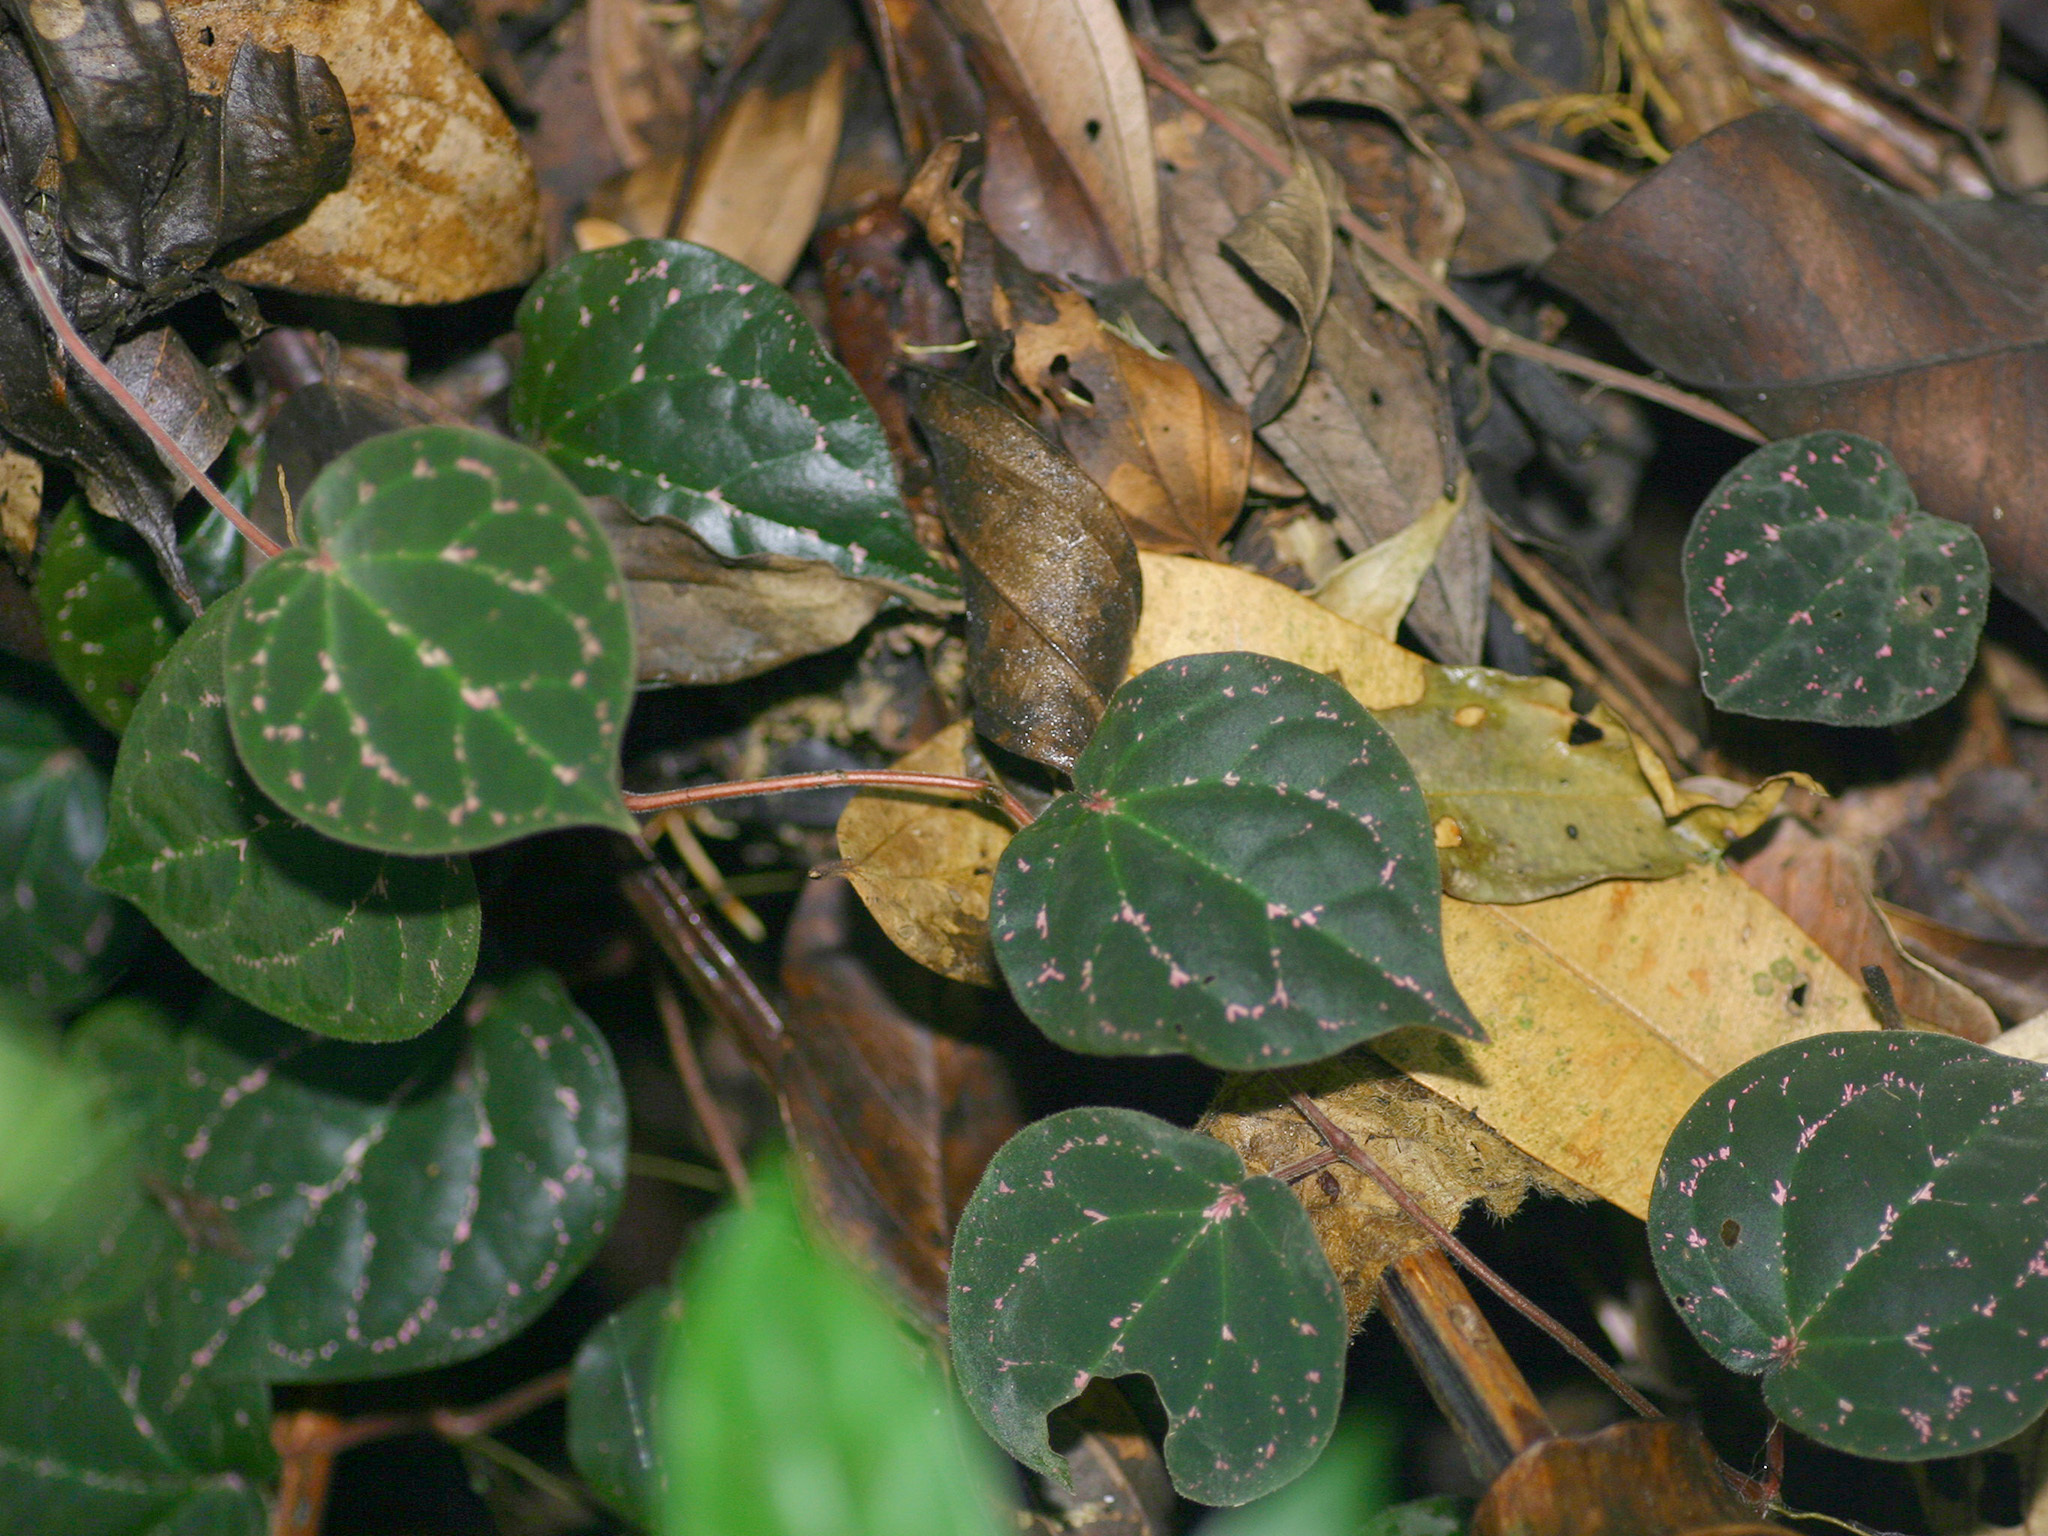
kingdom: Plantae
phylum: Tracheophyta
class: Magnoliopsida
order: Piperales
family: Piperaceae
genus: Piper
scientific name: Piper porphyrophyllum
